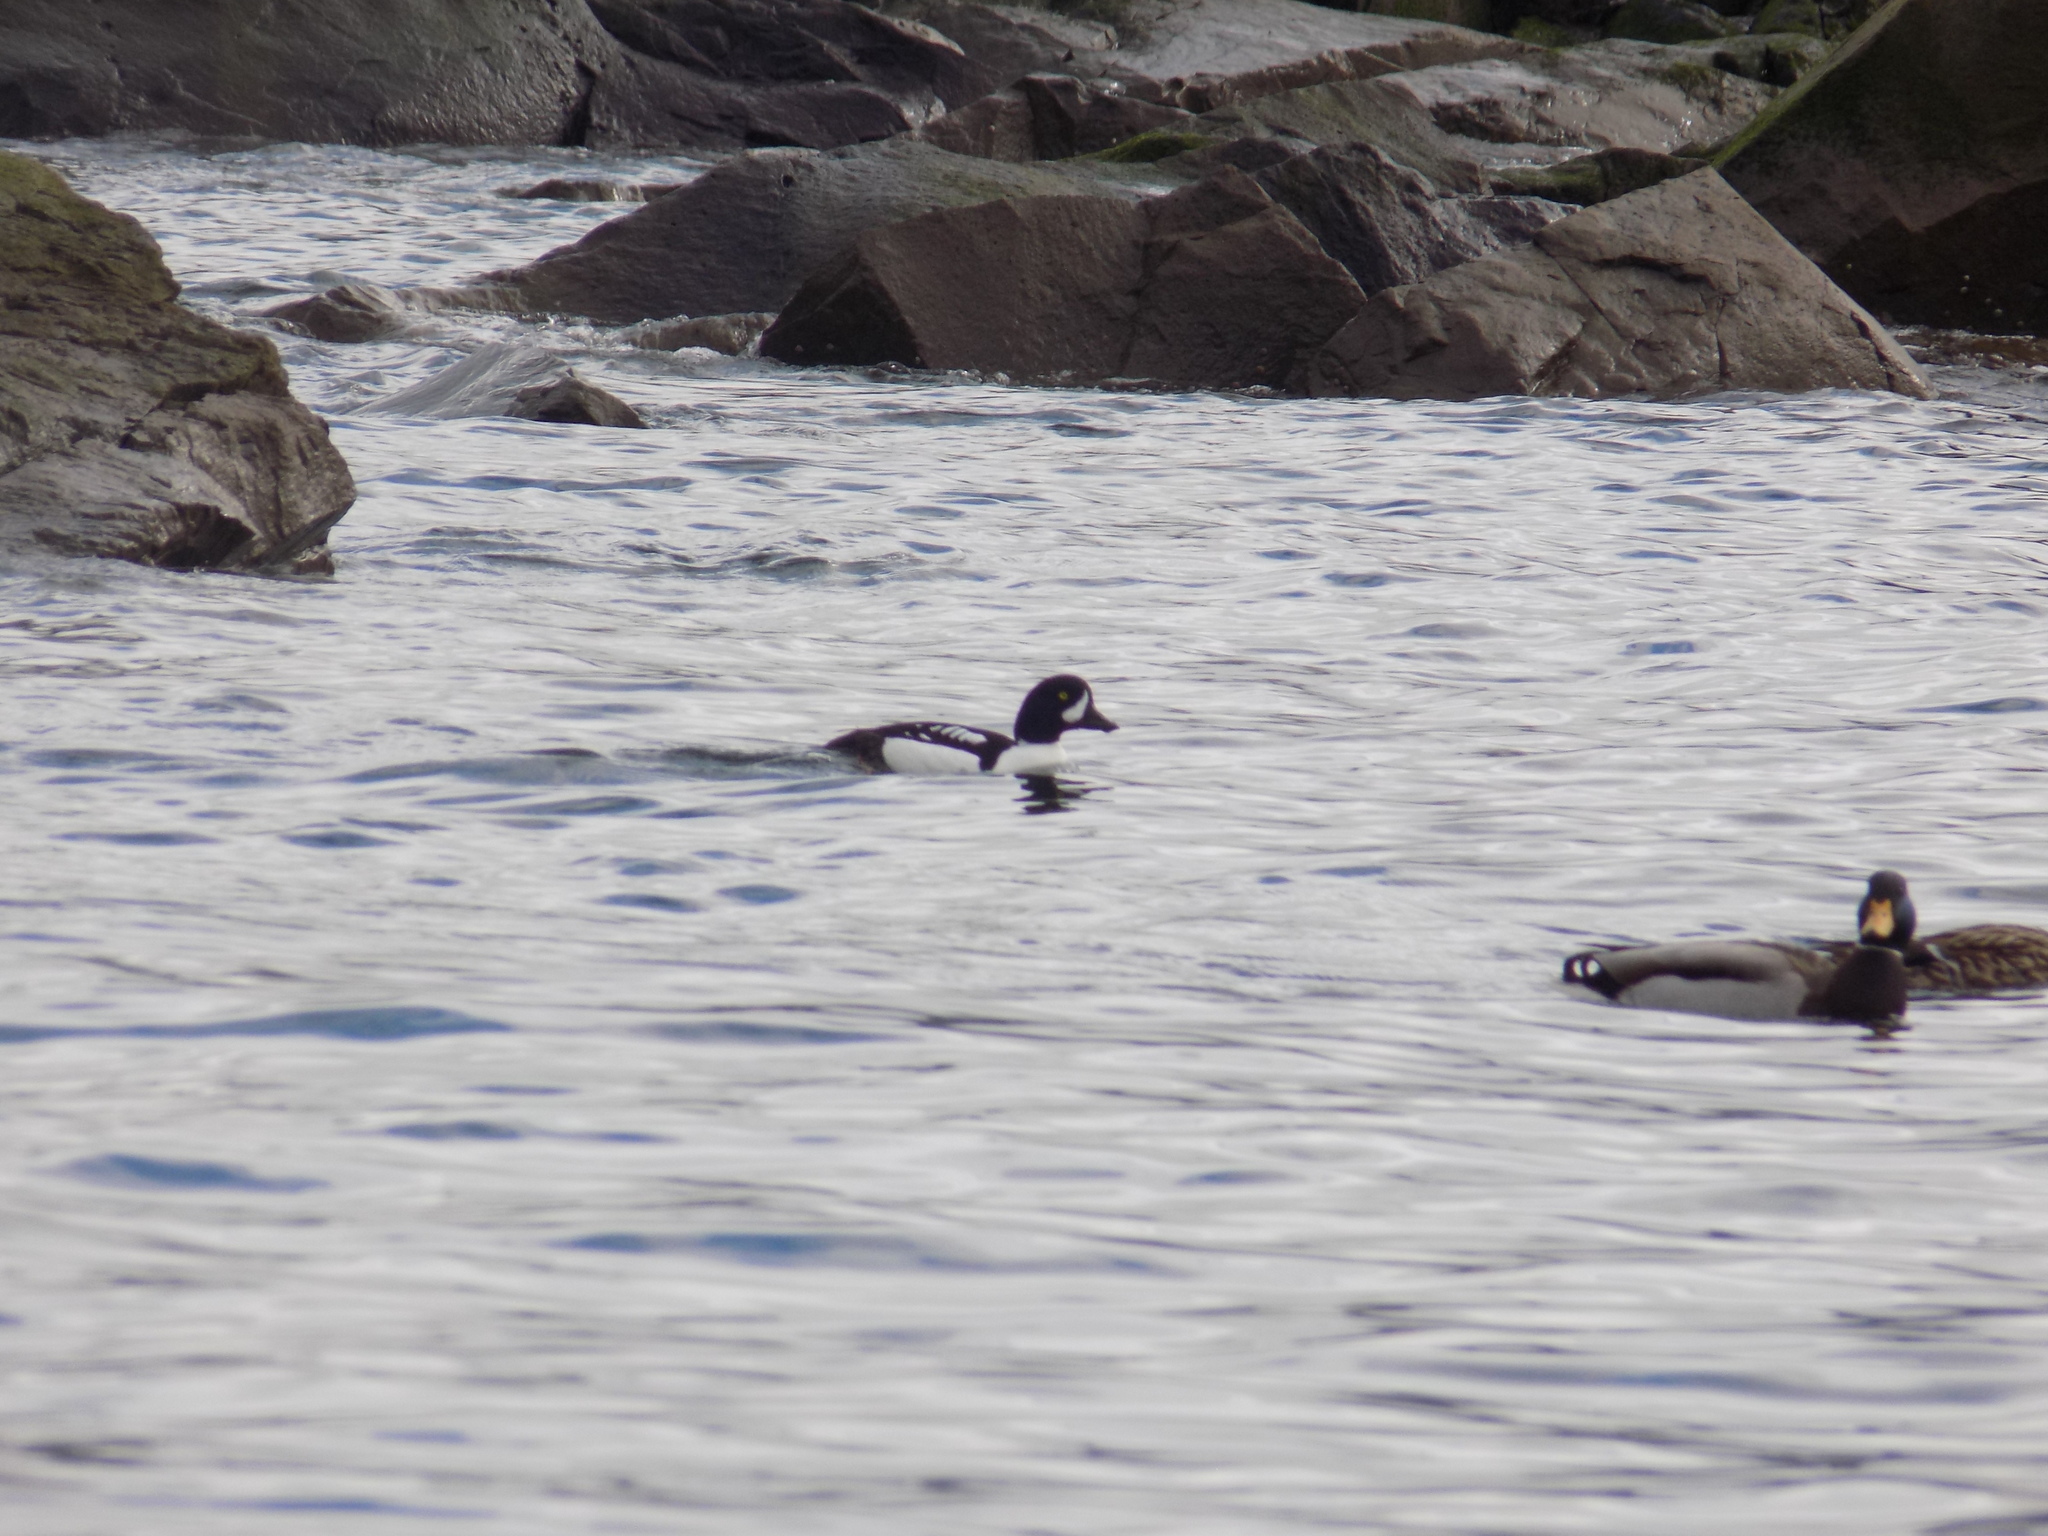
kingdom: Animalia
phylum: Chordata
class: Aves
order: Anseriformes
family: Anatidae
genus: Bucephala
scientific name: Bucephala islandica
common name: Barrow's goldeneye
